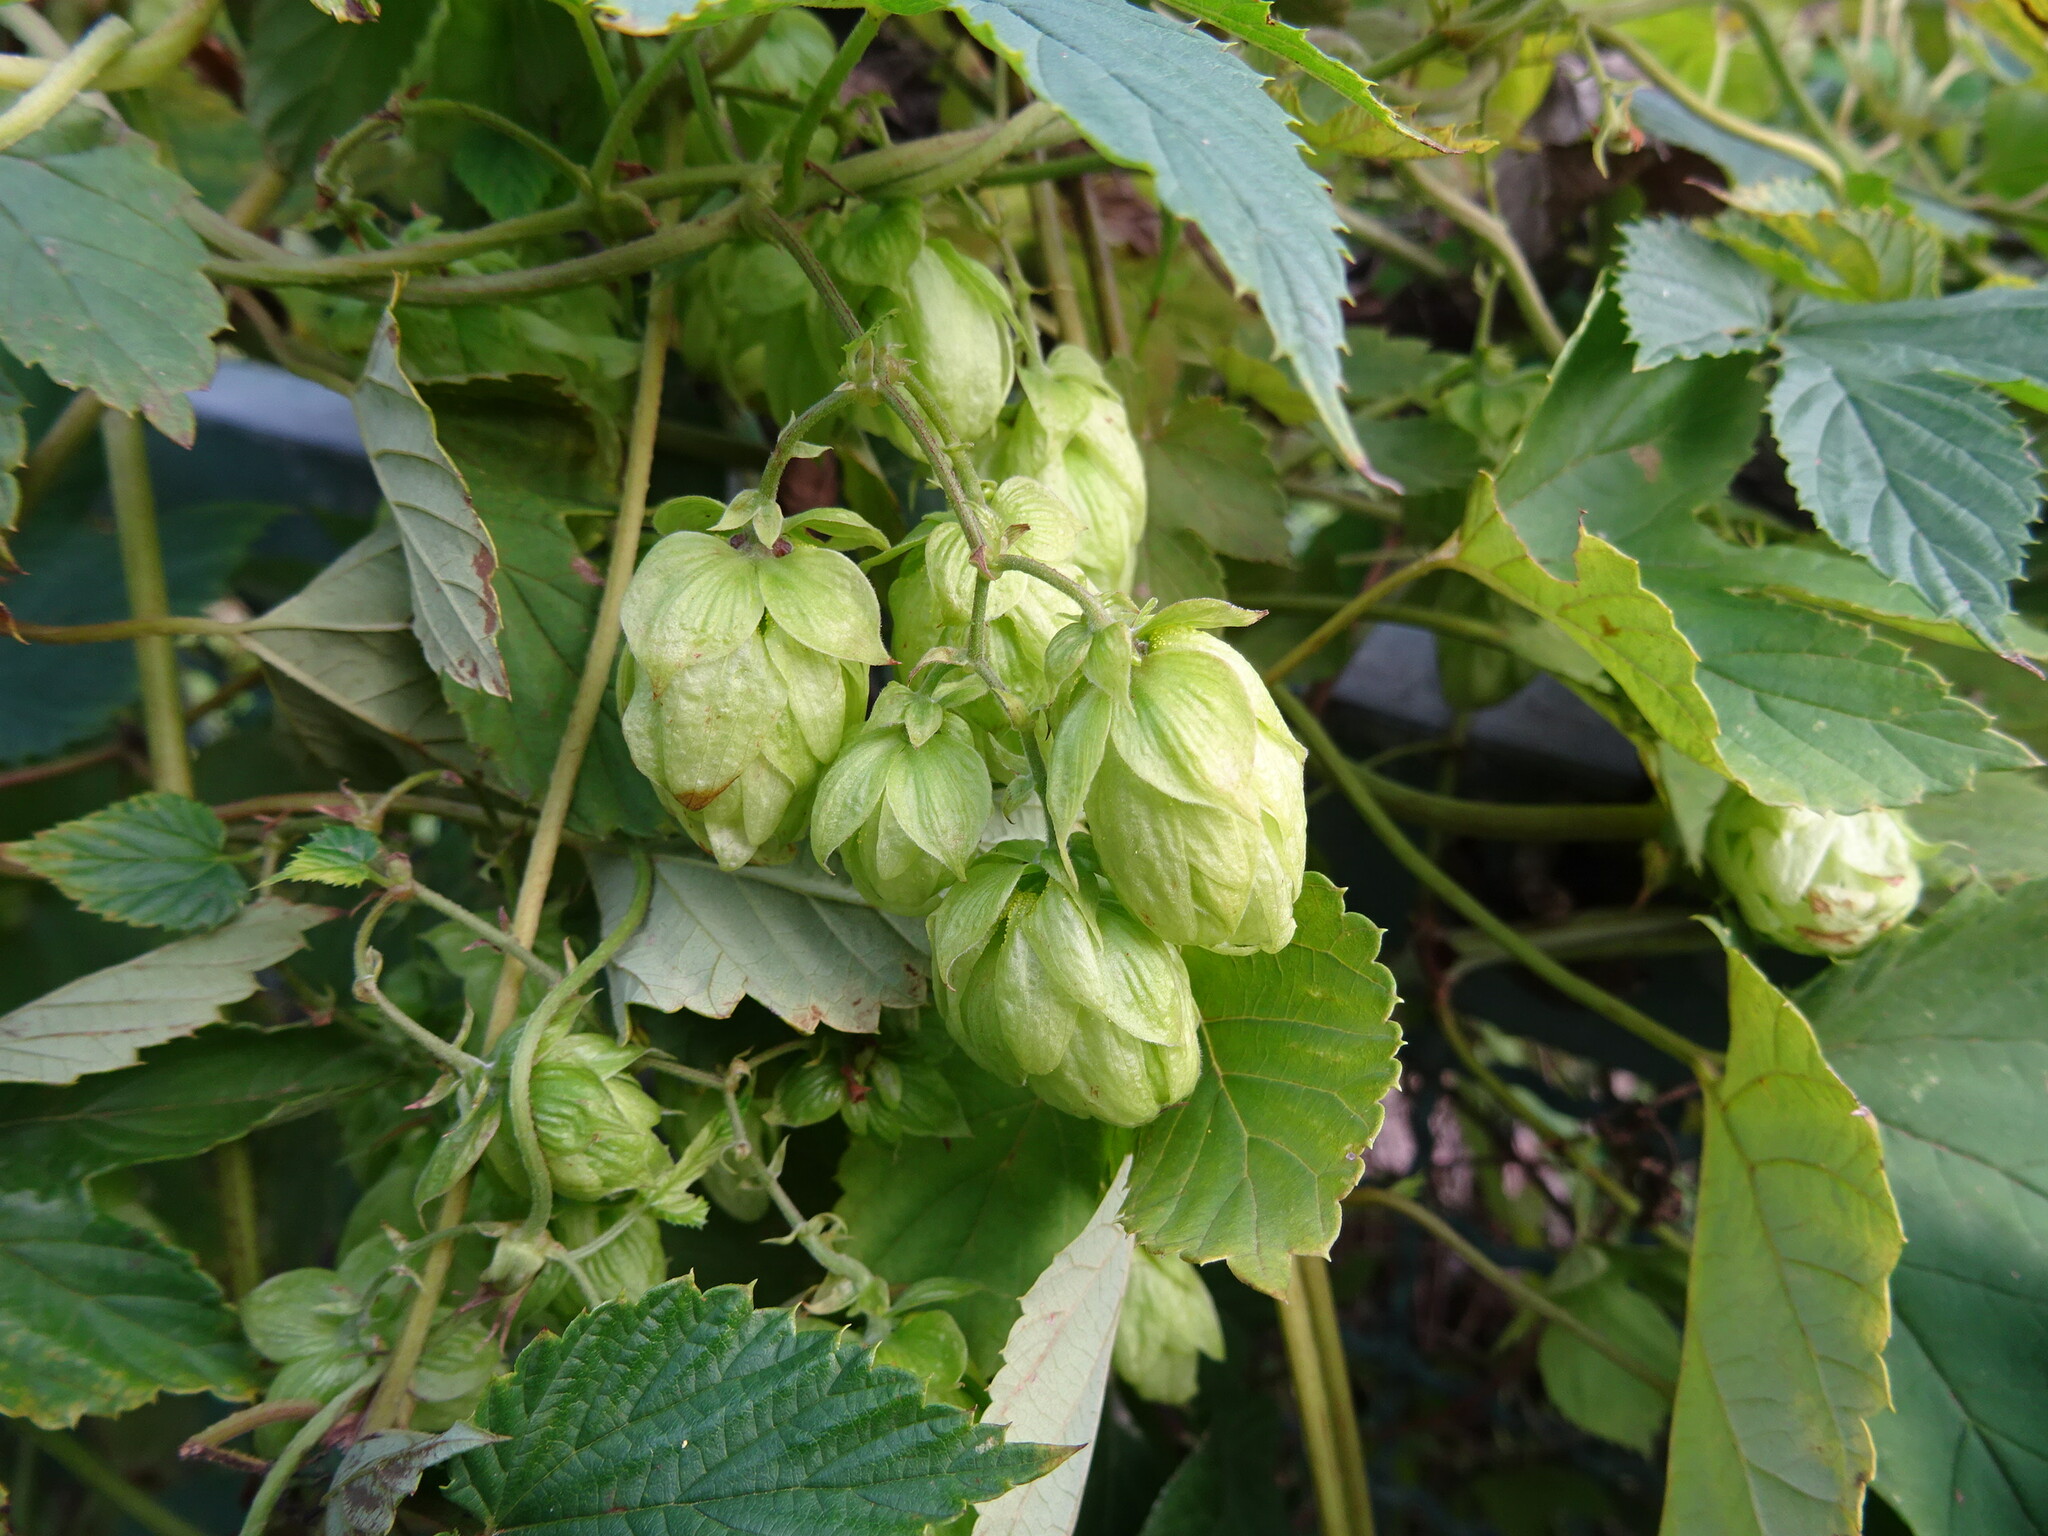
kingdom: Plantae
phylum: Tracheophyta
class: Magnoliopsida
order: Rosales
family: Cannabaceae
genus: Humulus
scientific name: Humulus lupulus
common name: Hop
